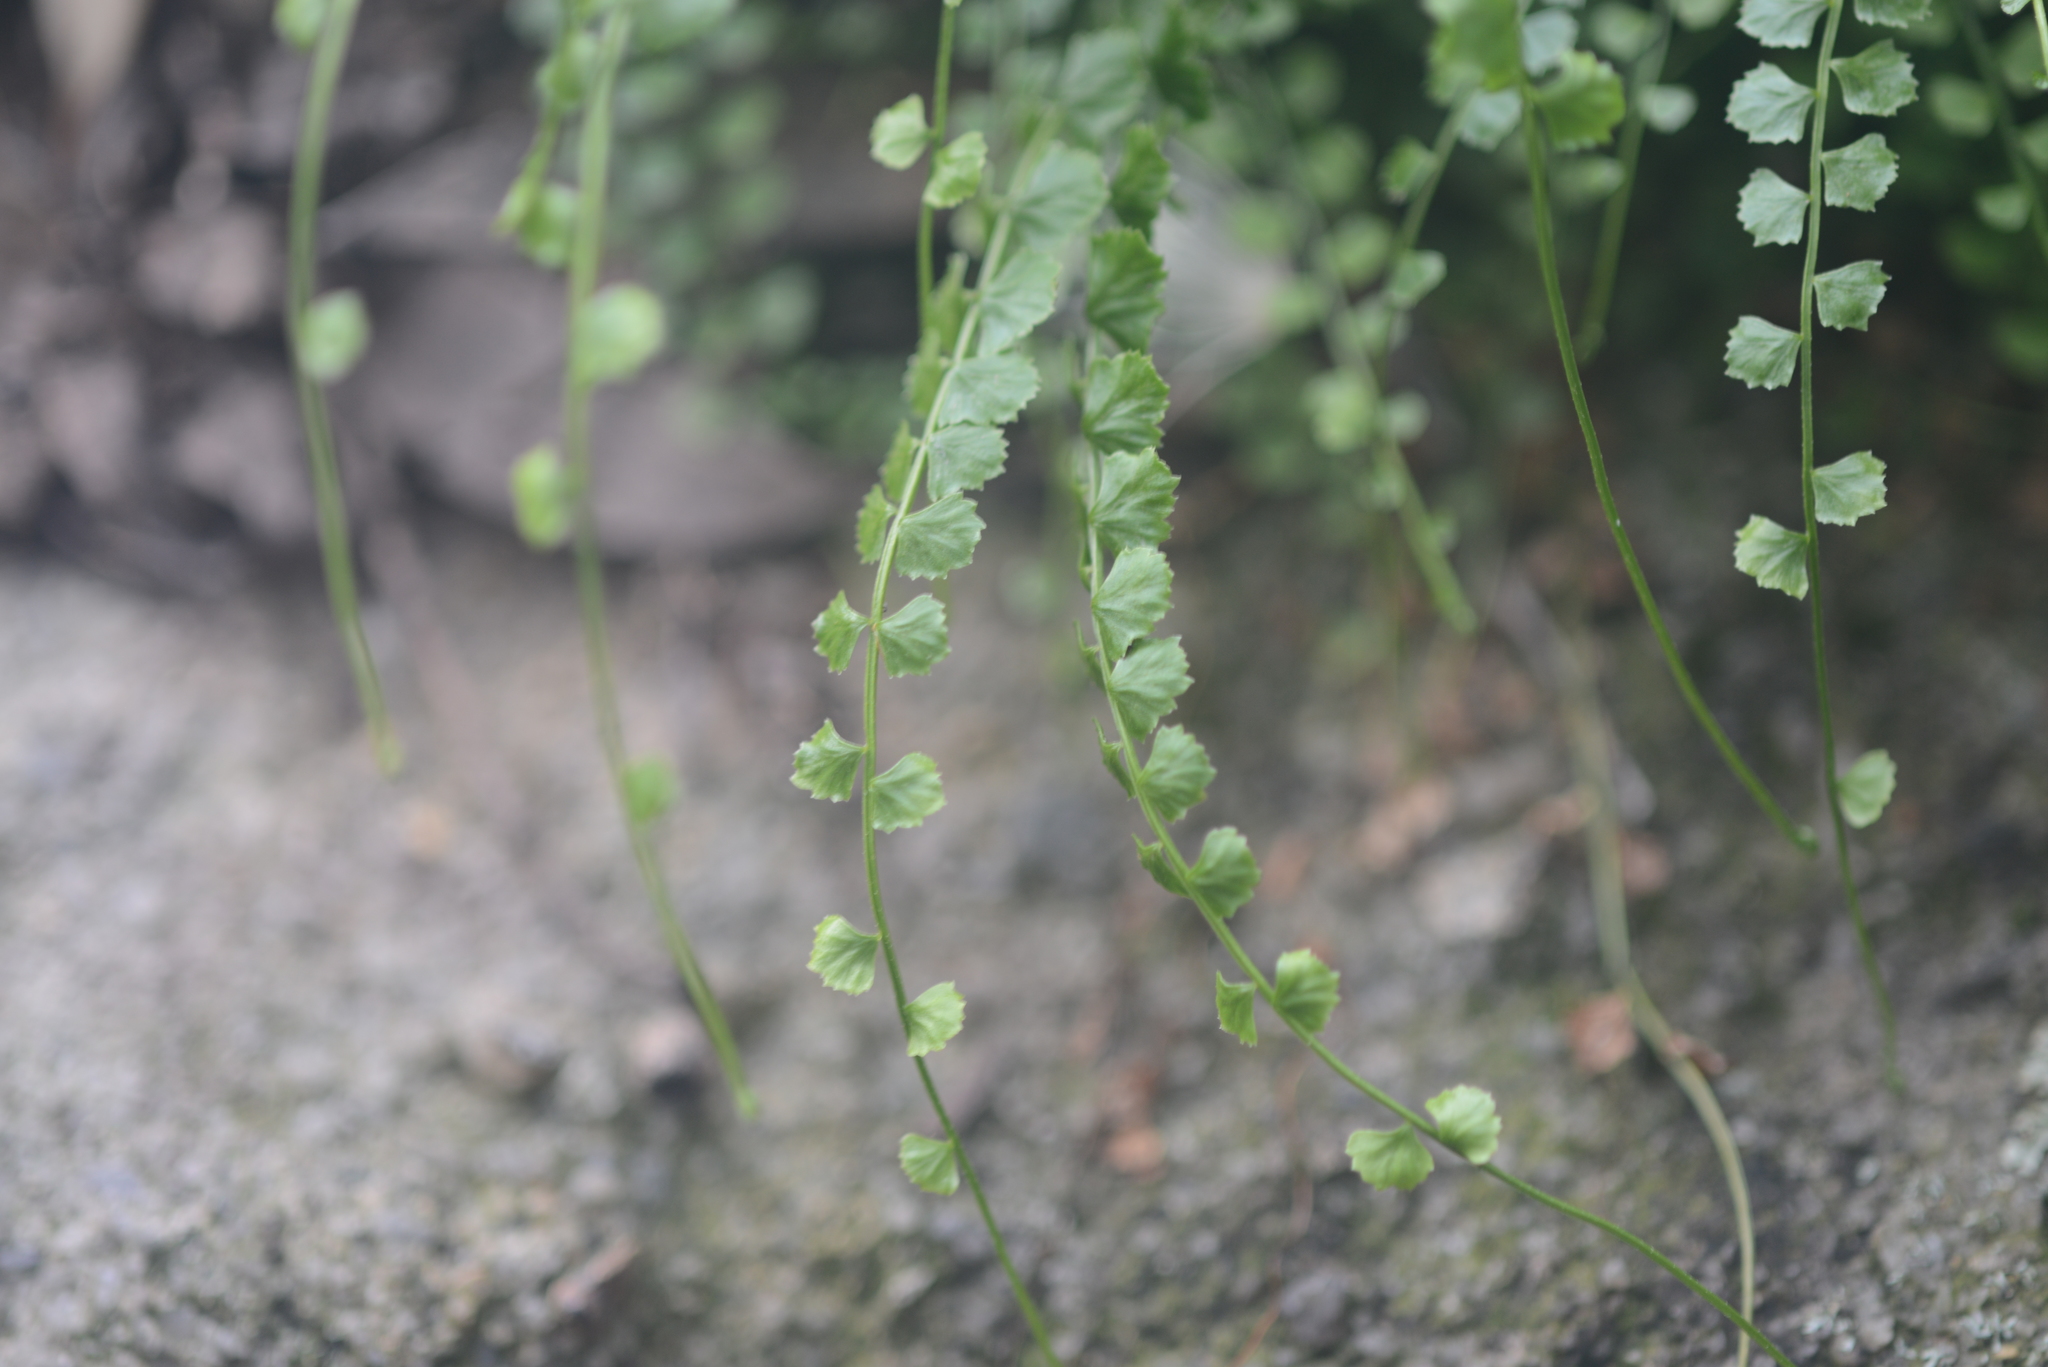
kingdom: Plantae
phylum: Tracheophyta
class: Polypodiopsida
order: Polypodiales
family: Aspleniaceae
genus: Asplenium
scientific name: Asplenium flabellifolium
